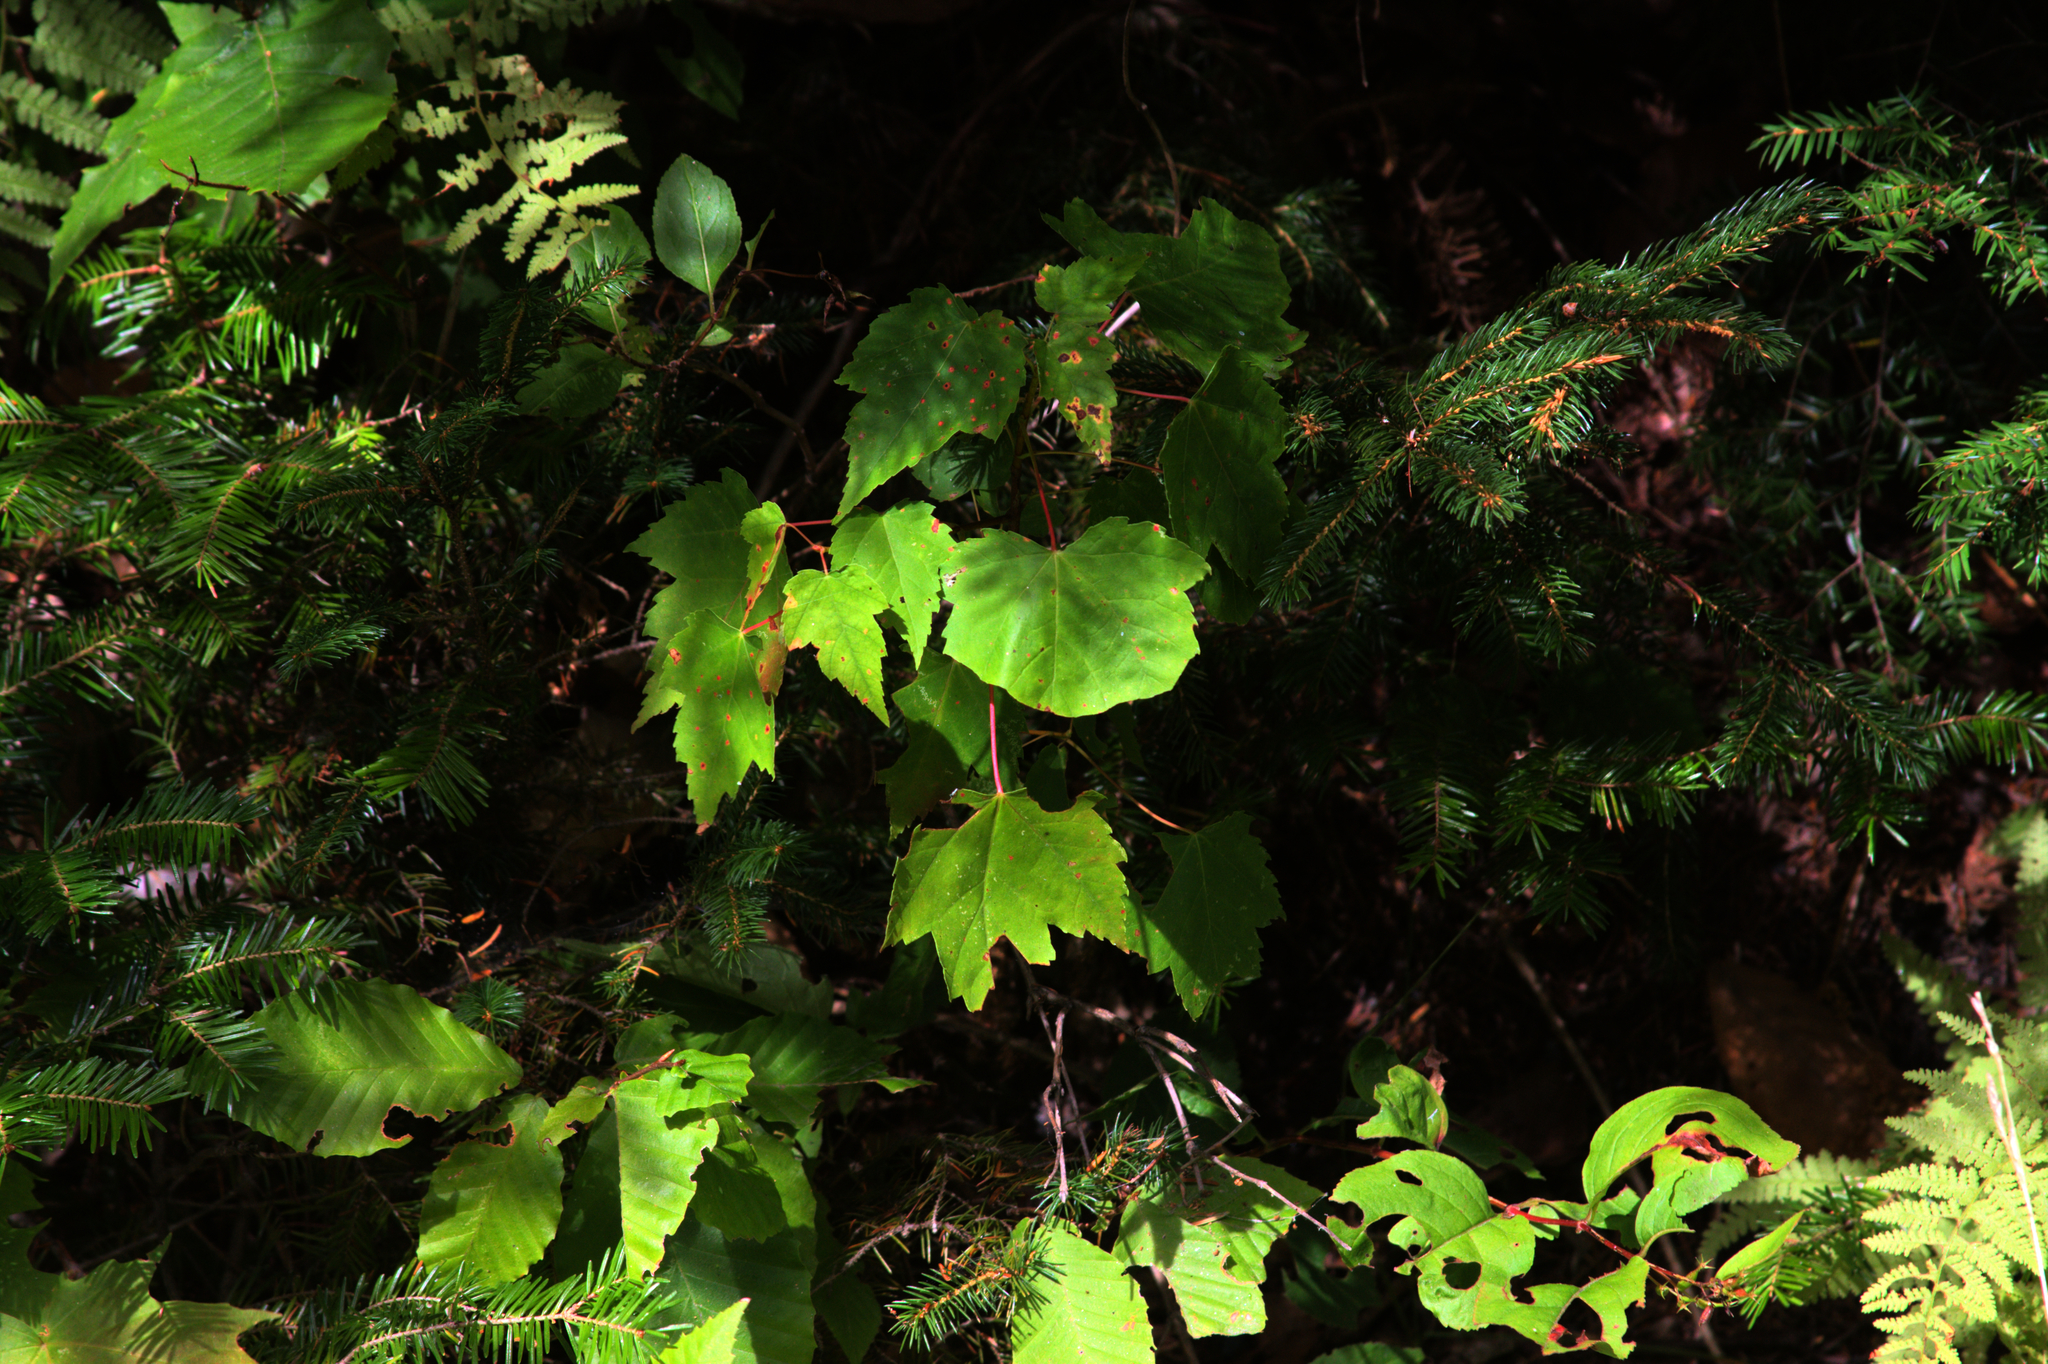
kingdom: Plantae
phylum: Tracheophyta
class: Magnoliopsida
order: Sapindales
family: Sapindaceae
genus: Acer
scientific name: Acer rubrum
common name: Red maple
